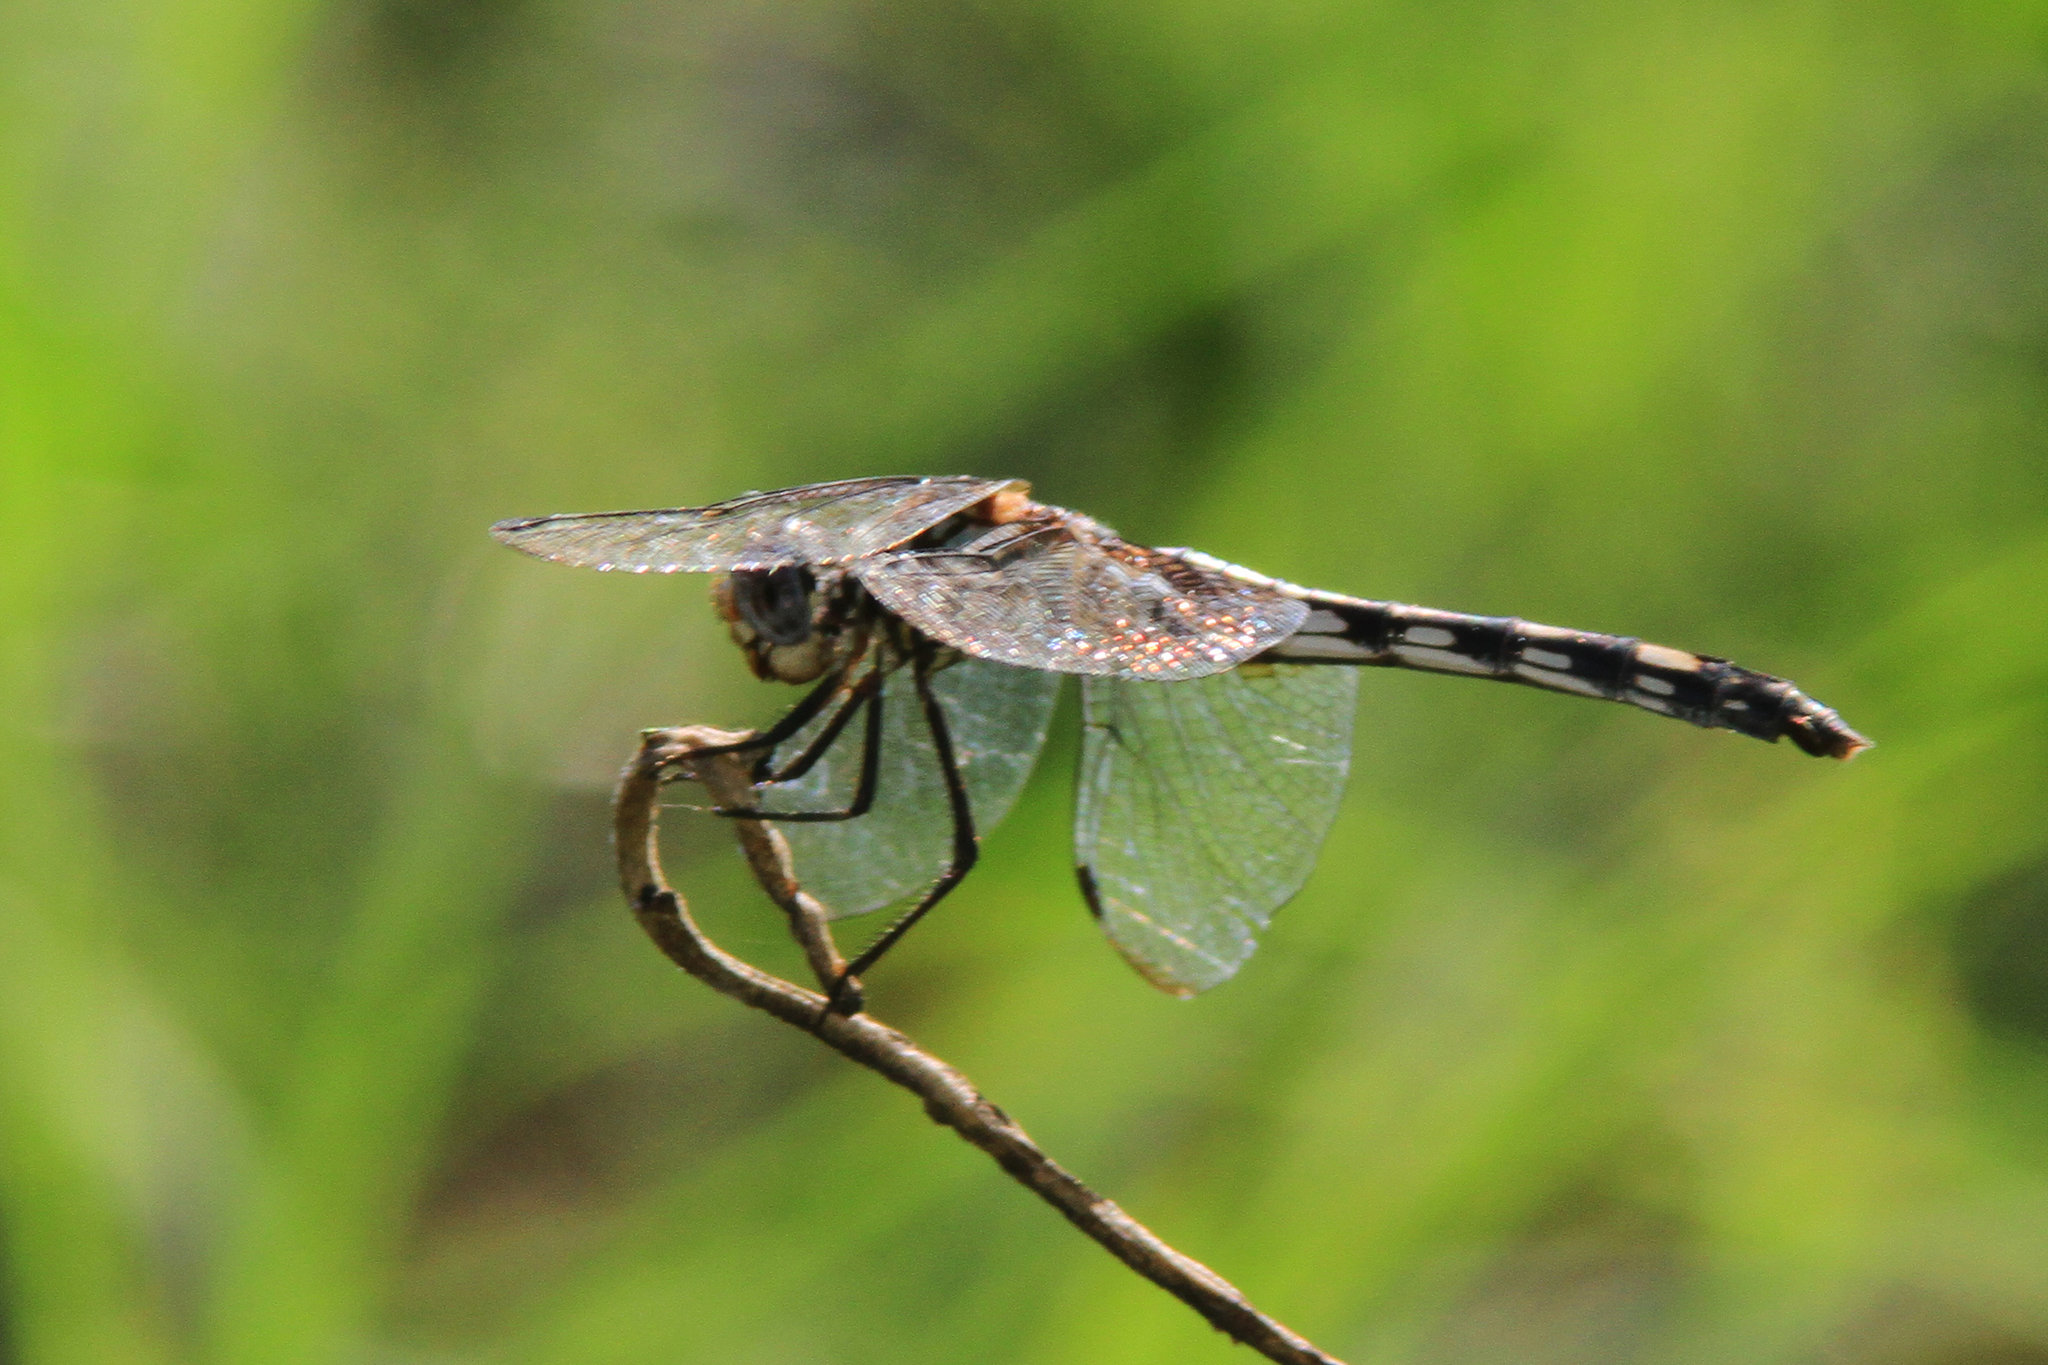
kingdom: Animalia
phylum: Arthropoda
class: Insecta
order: Odonata
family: Libellulidae
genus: Dythemis
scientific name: Dythemis nigrescens
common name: Black setwing
